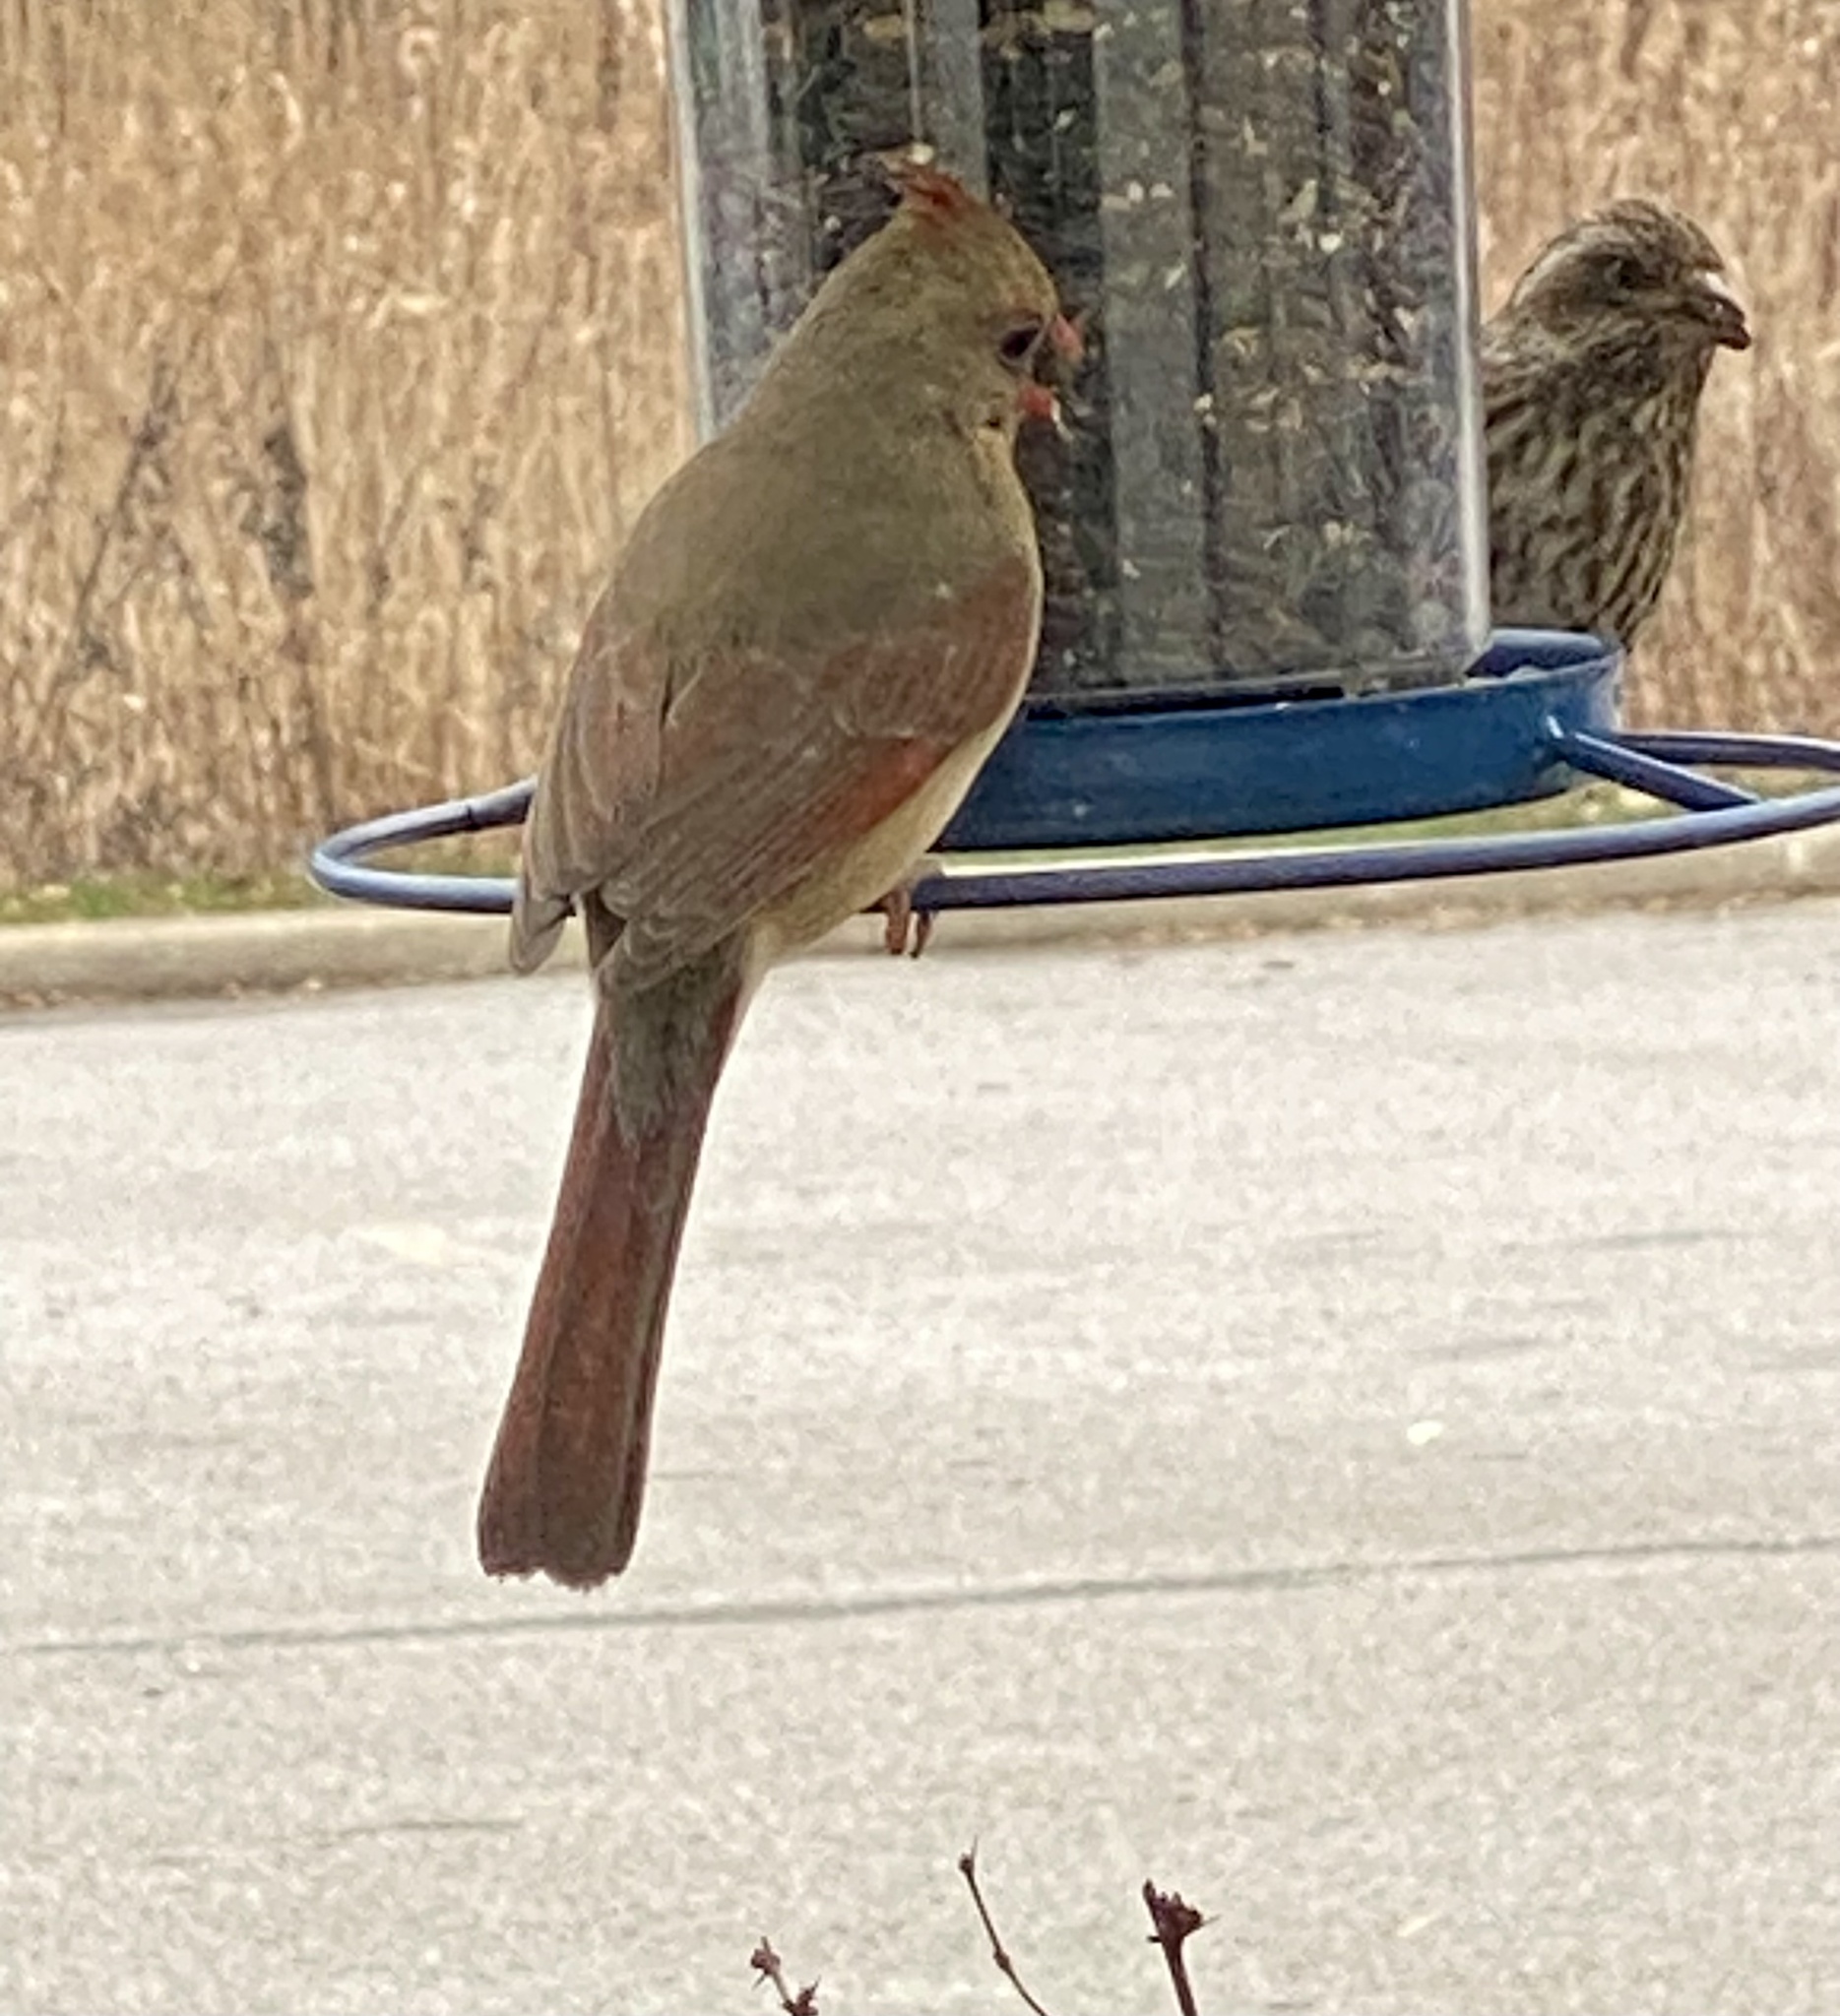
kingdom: Animalia
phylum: Chordata
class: Aves
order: Passeriformes
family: Cardinalidae
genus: Cardinalis
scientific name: Cardinalis cardinalis
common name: Northern cardinal
